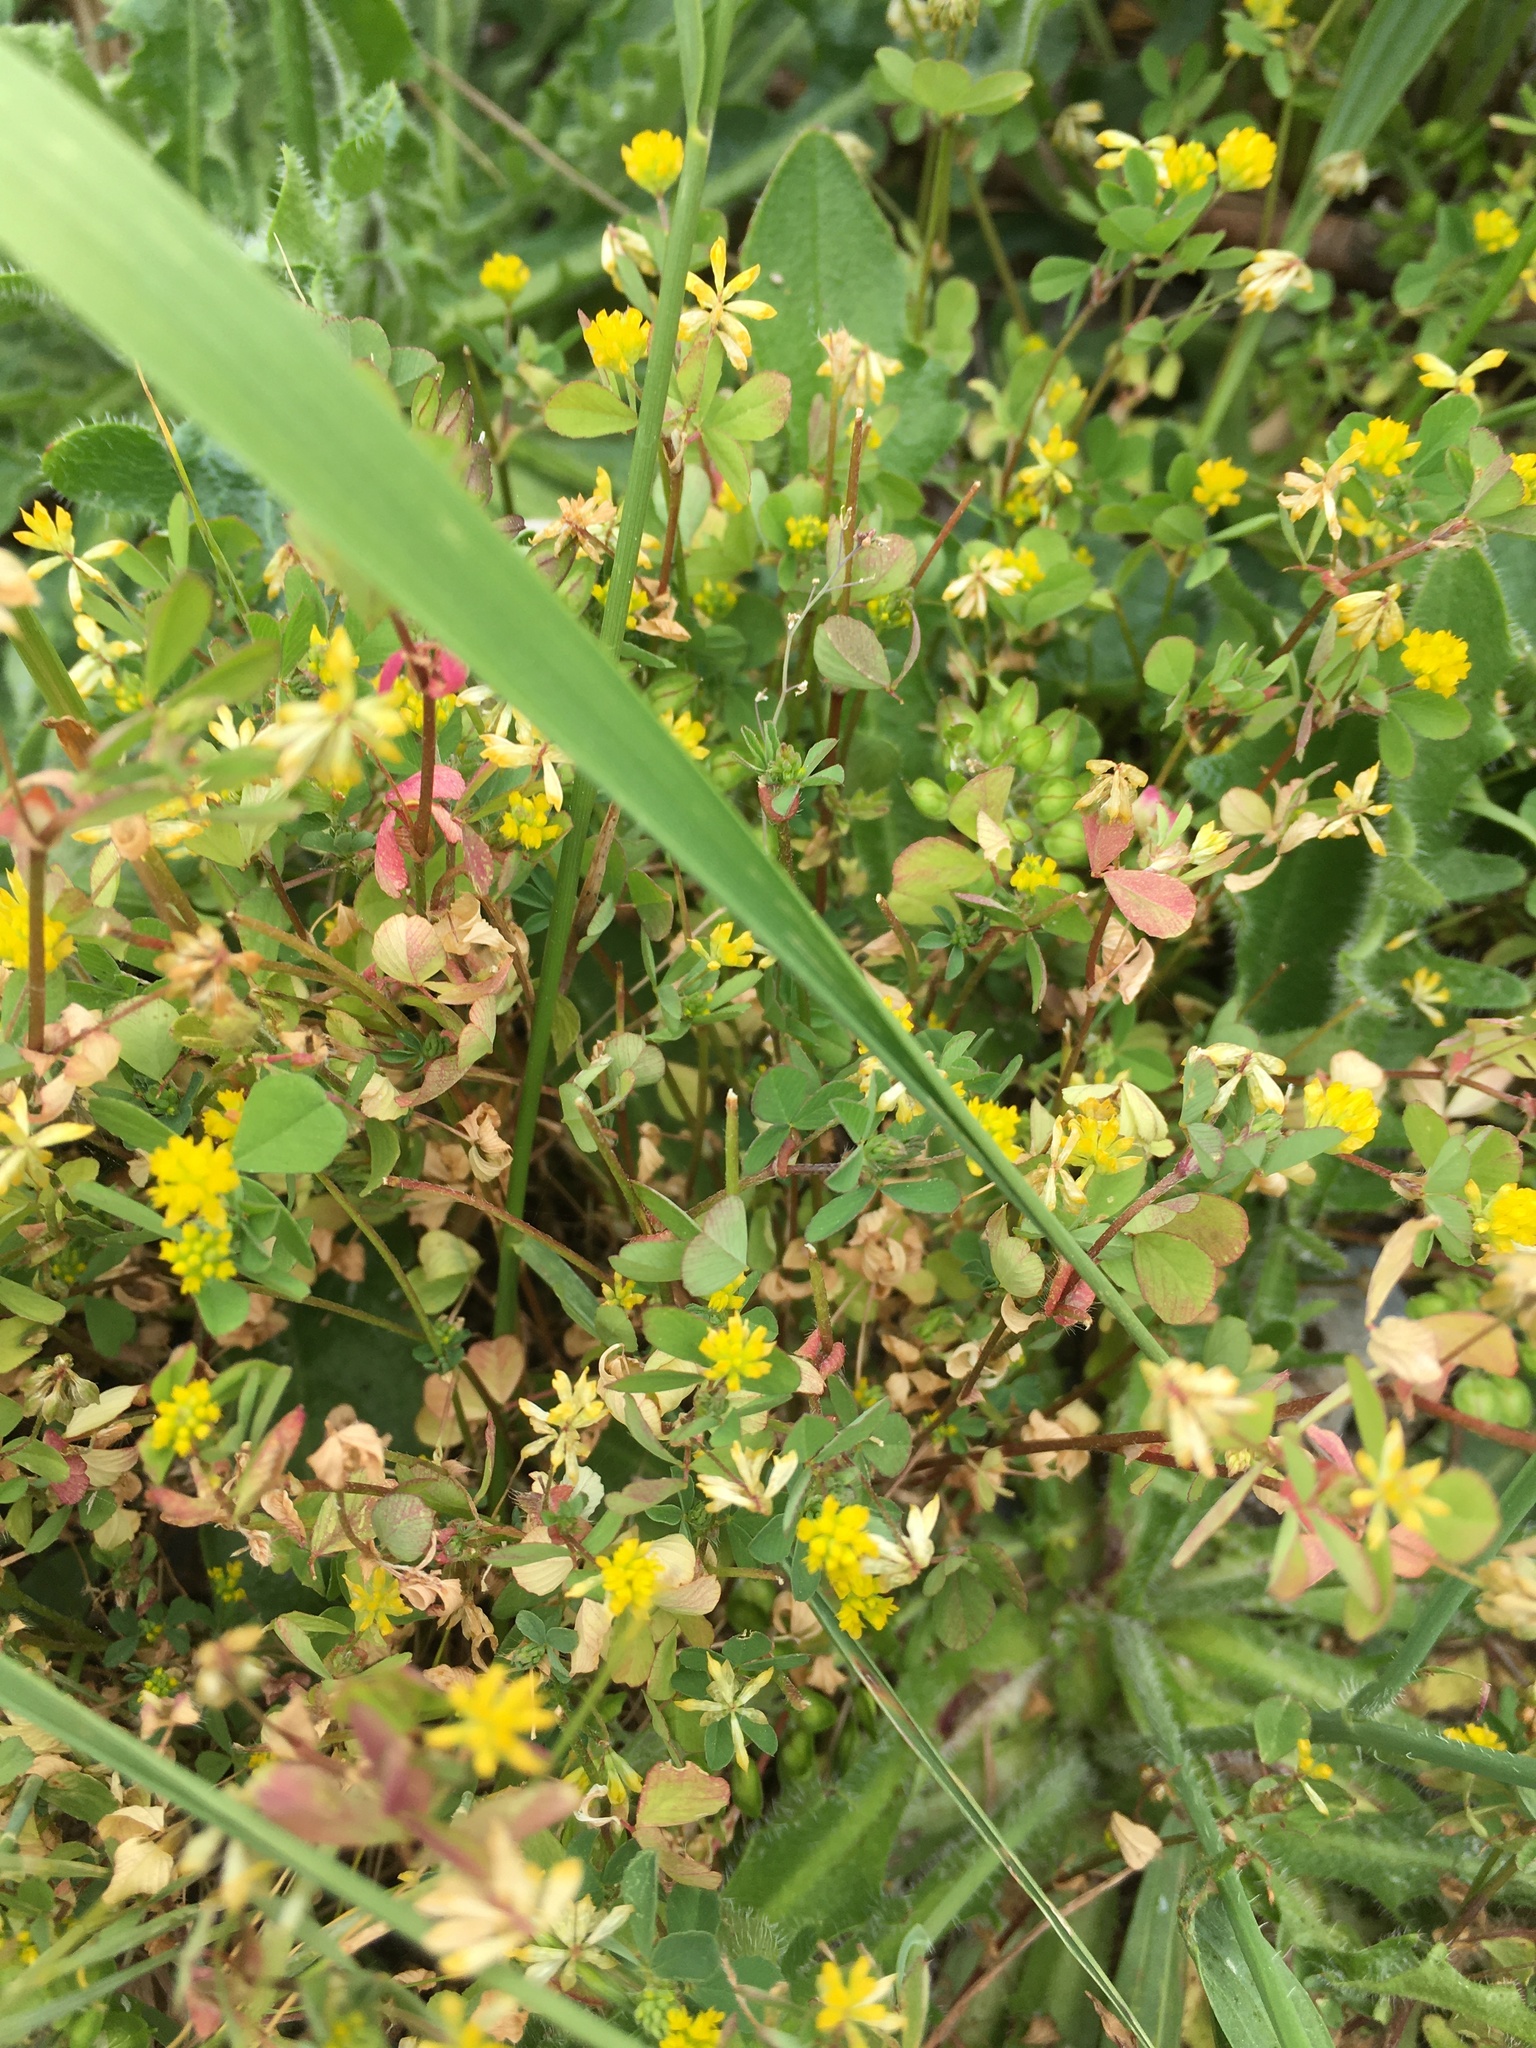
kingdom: Plantae
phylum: Tracheophyta
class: Magnoliopsida
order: Fabales
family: Fabaceae
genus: Trifolium
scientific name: Trifolium dubium
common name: Suckling clover
